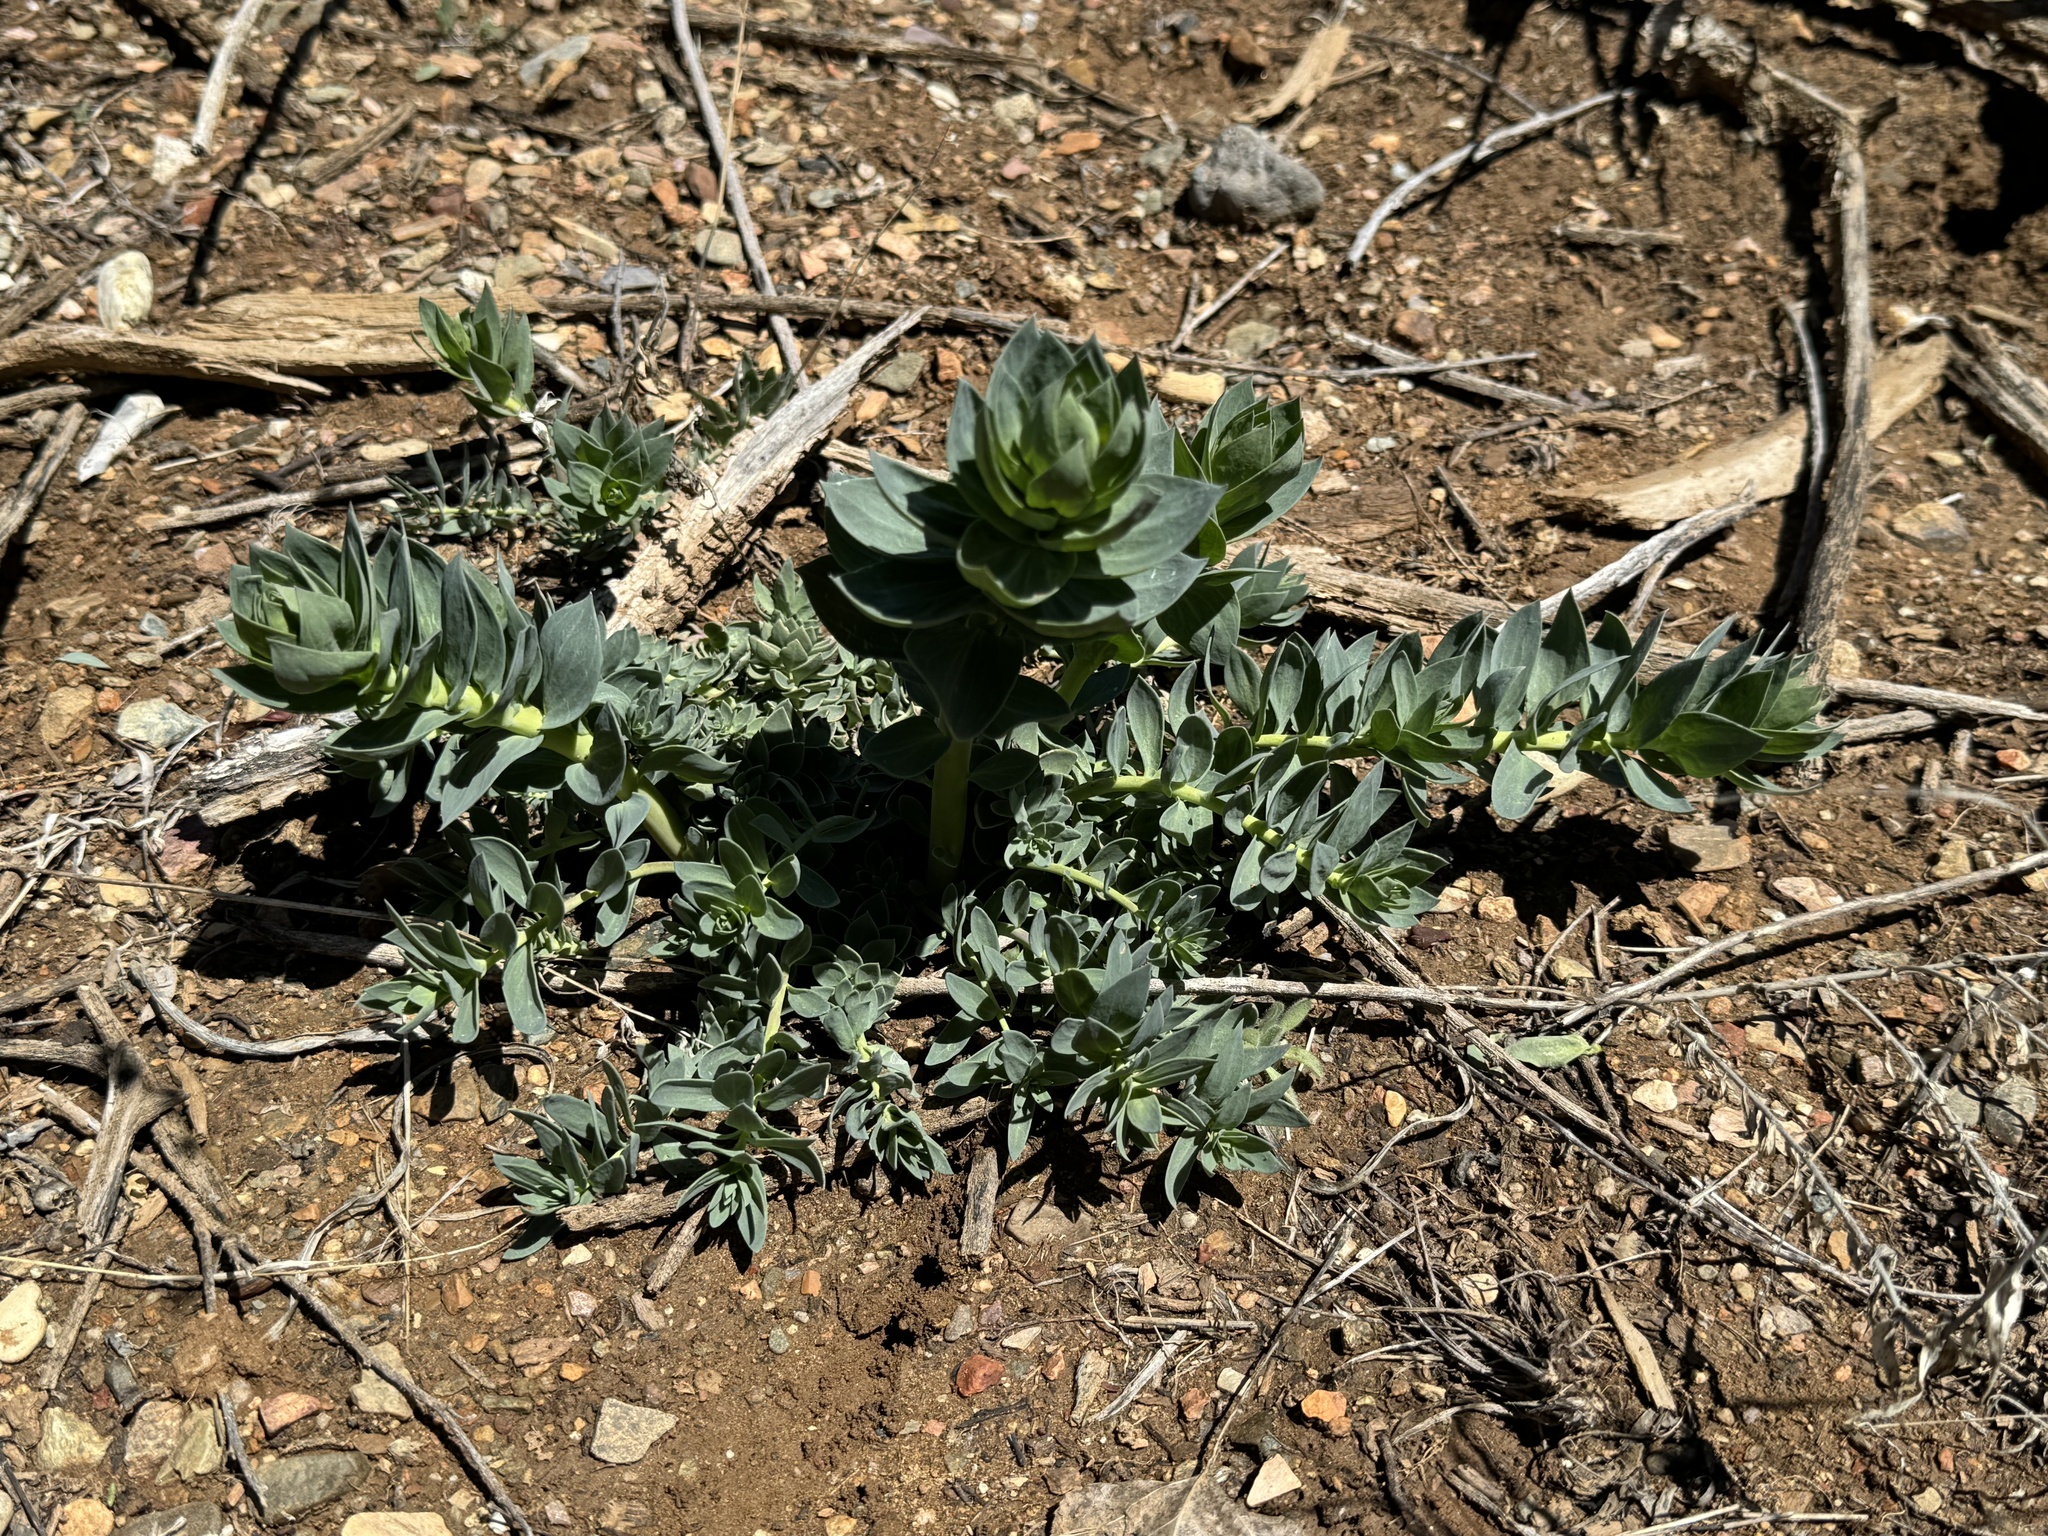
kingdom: Plantae
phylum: Tracheophyta
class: Magnoliopsida
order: Lamiales
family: Plantaginaceae
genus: Linaria
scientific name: Linaria dalmatica
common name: Dalmatian toadflax
